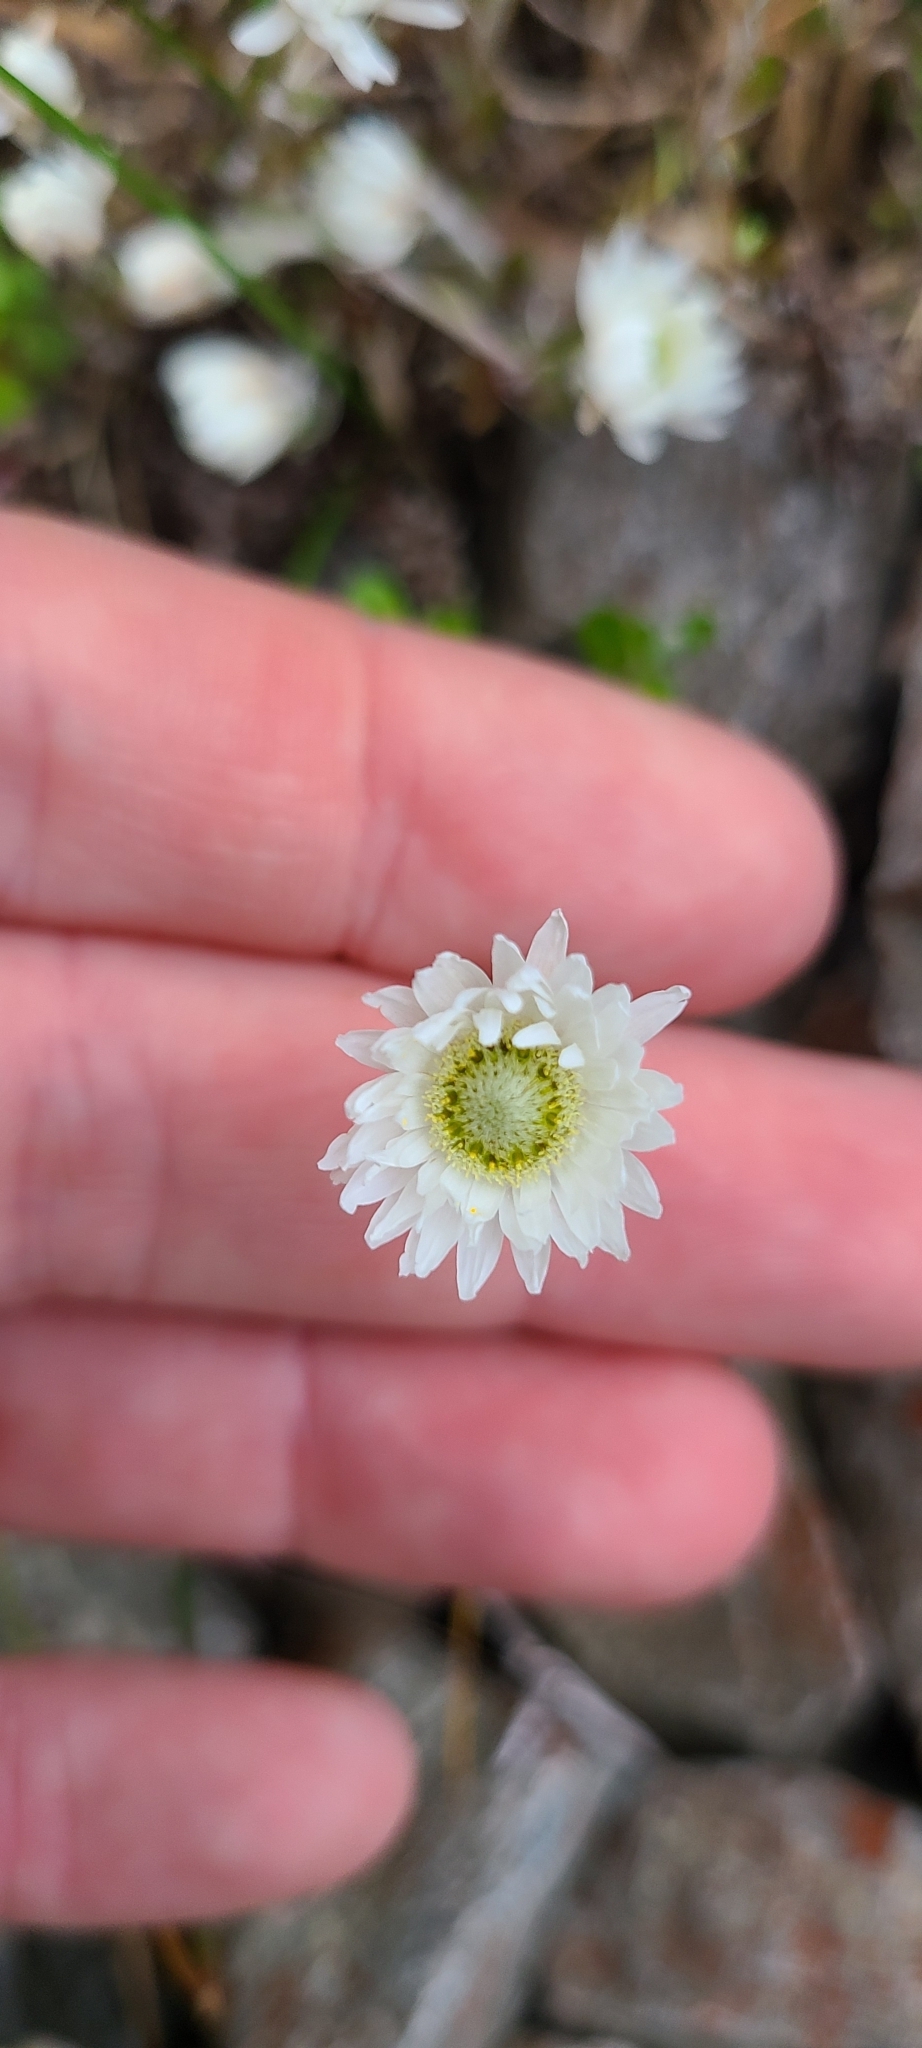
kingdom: Plantae
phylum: Tracheophyta
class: Magnoliopsida
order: Asterales
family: Asteraceae
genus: Anaphalioides
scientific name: Anaphalioides bellidioides
